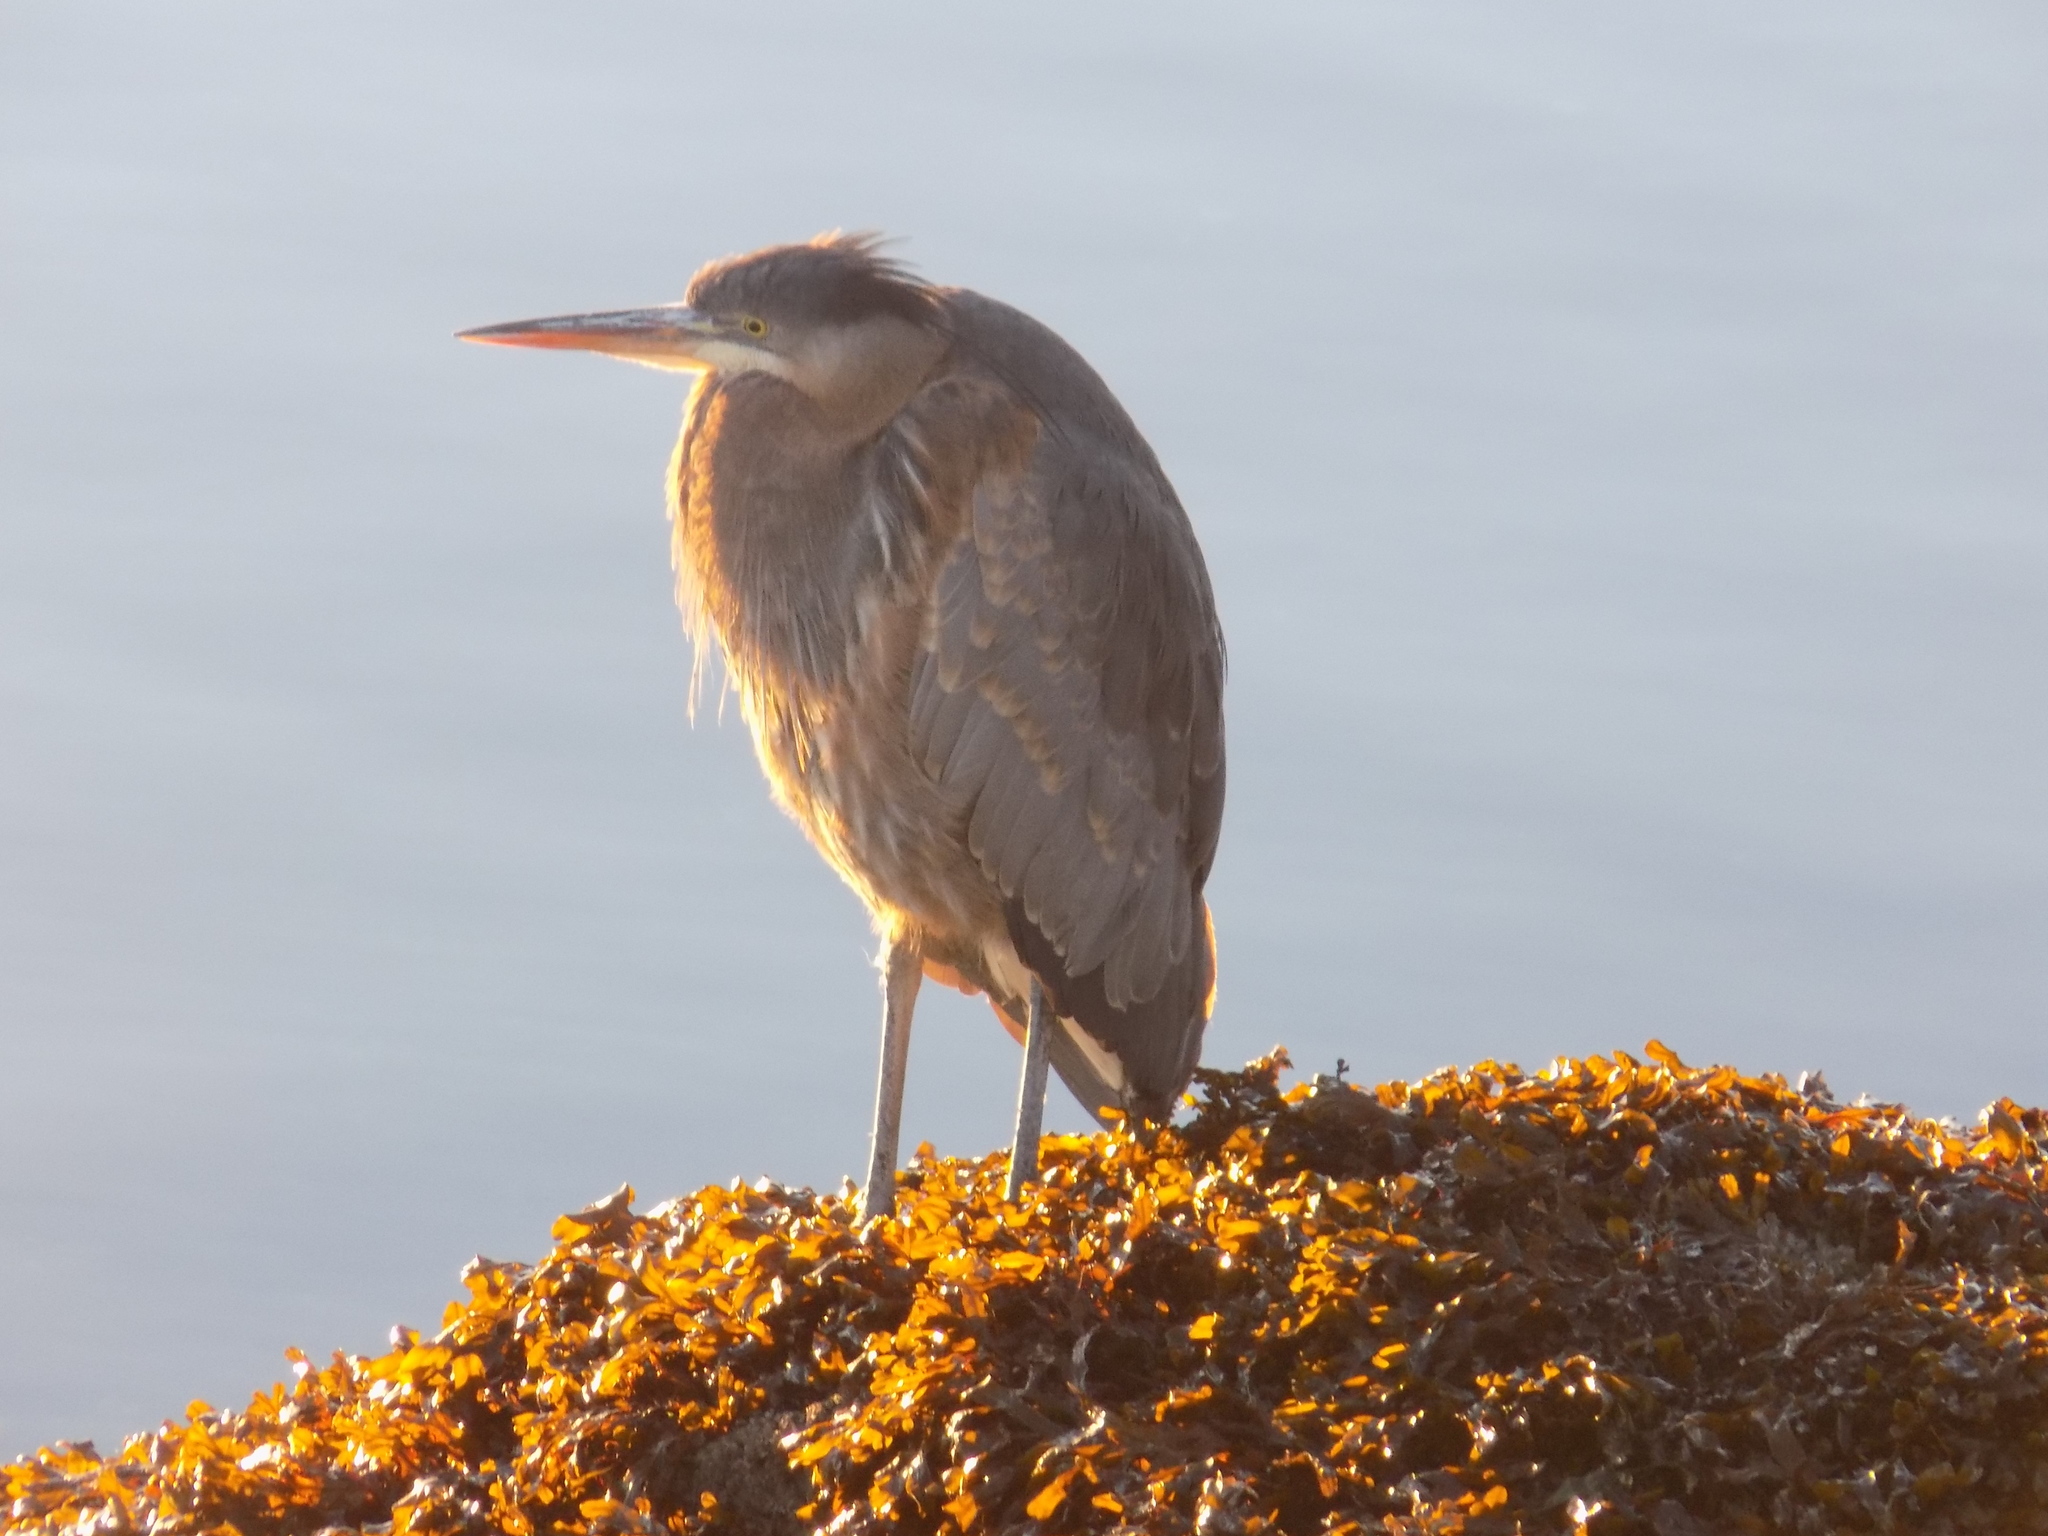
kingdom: Animalia
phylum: Chordata
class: Aves
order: Pelecaniformes
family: Ardeidae
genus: Ardea
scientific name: Ardea herodias
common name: Great blue heron
